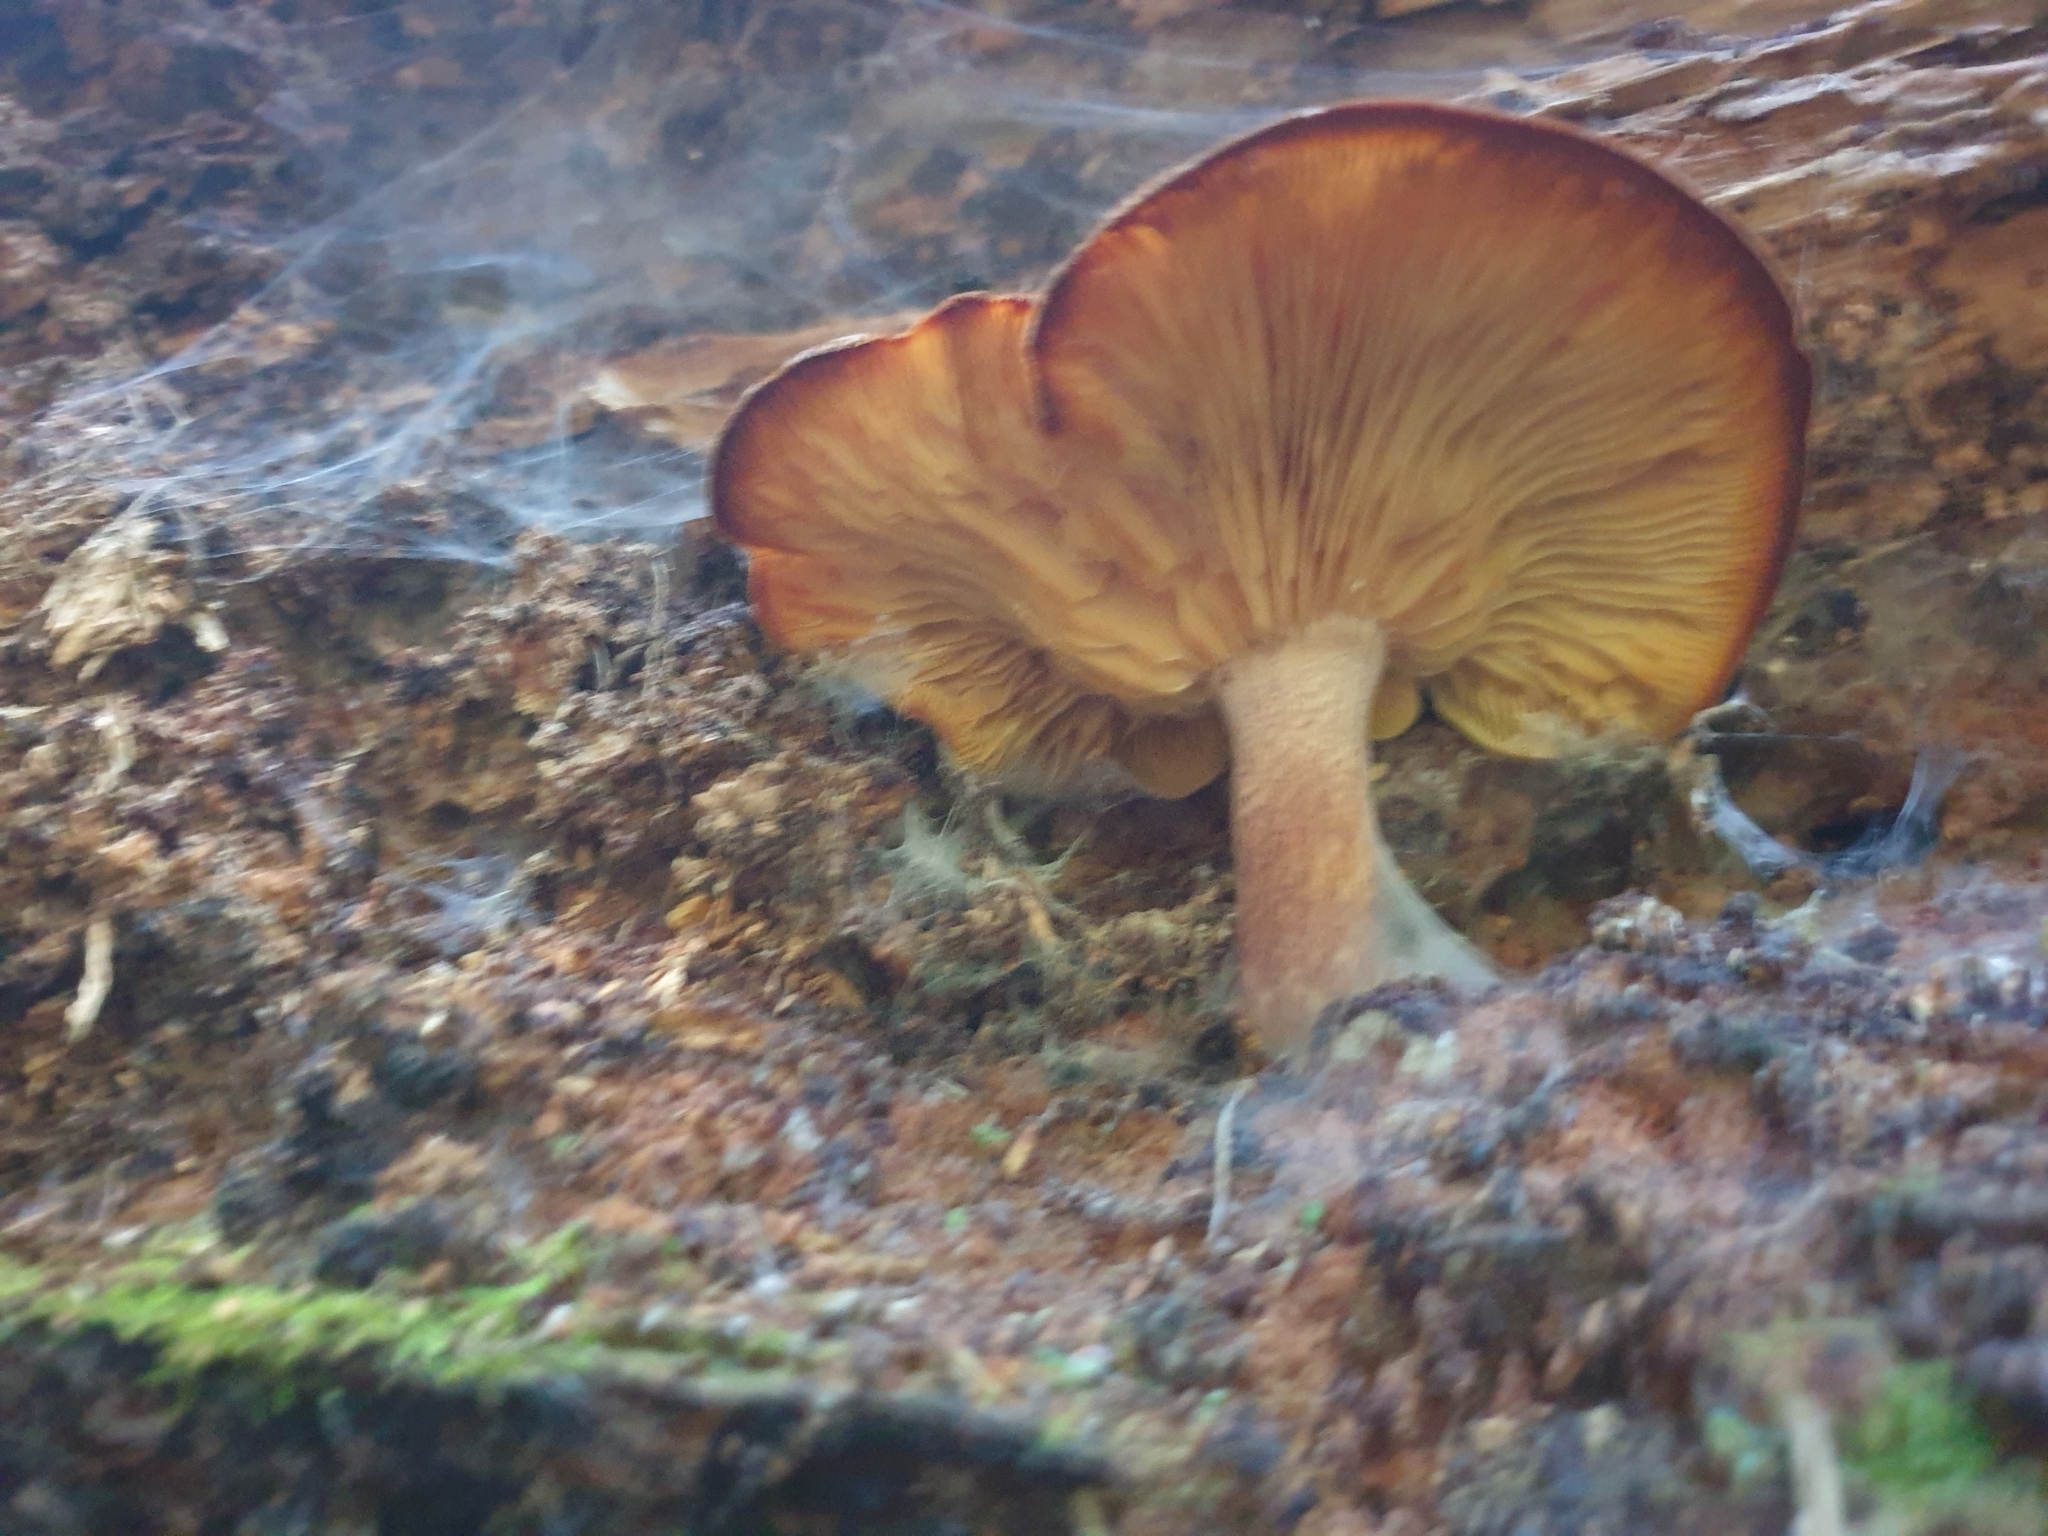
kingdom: Fungi
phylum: Basidiomycota
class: Agaricomycetes
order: Agaricales
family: Tricholomataceae
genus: Tricholomopsis
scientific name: Tricholomopsis ornaticeps
